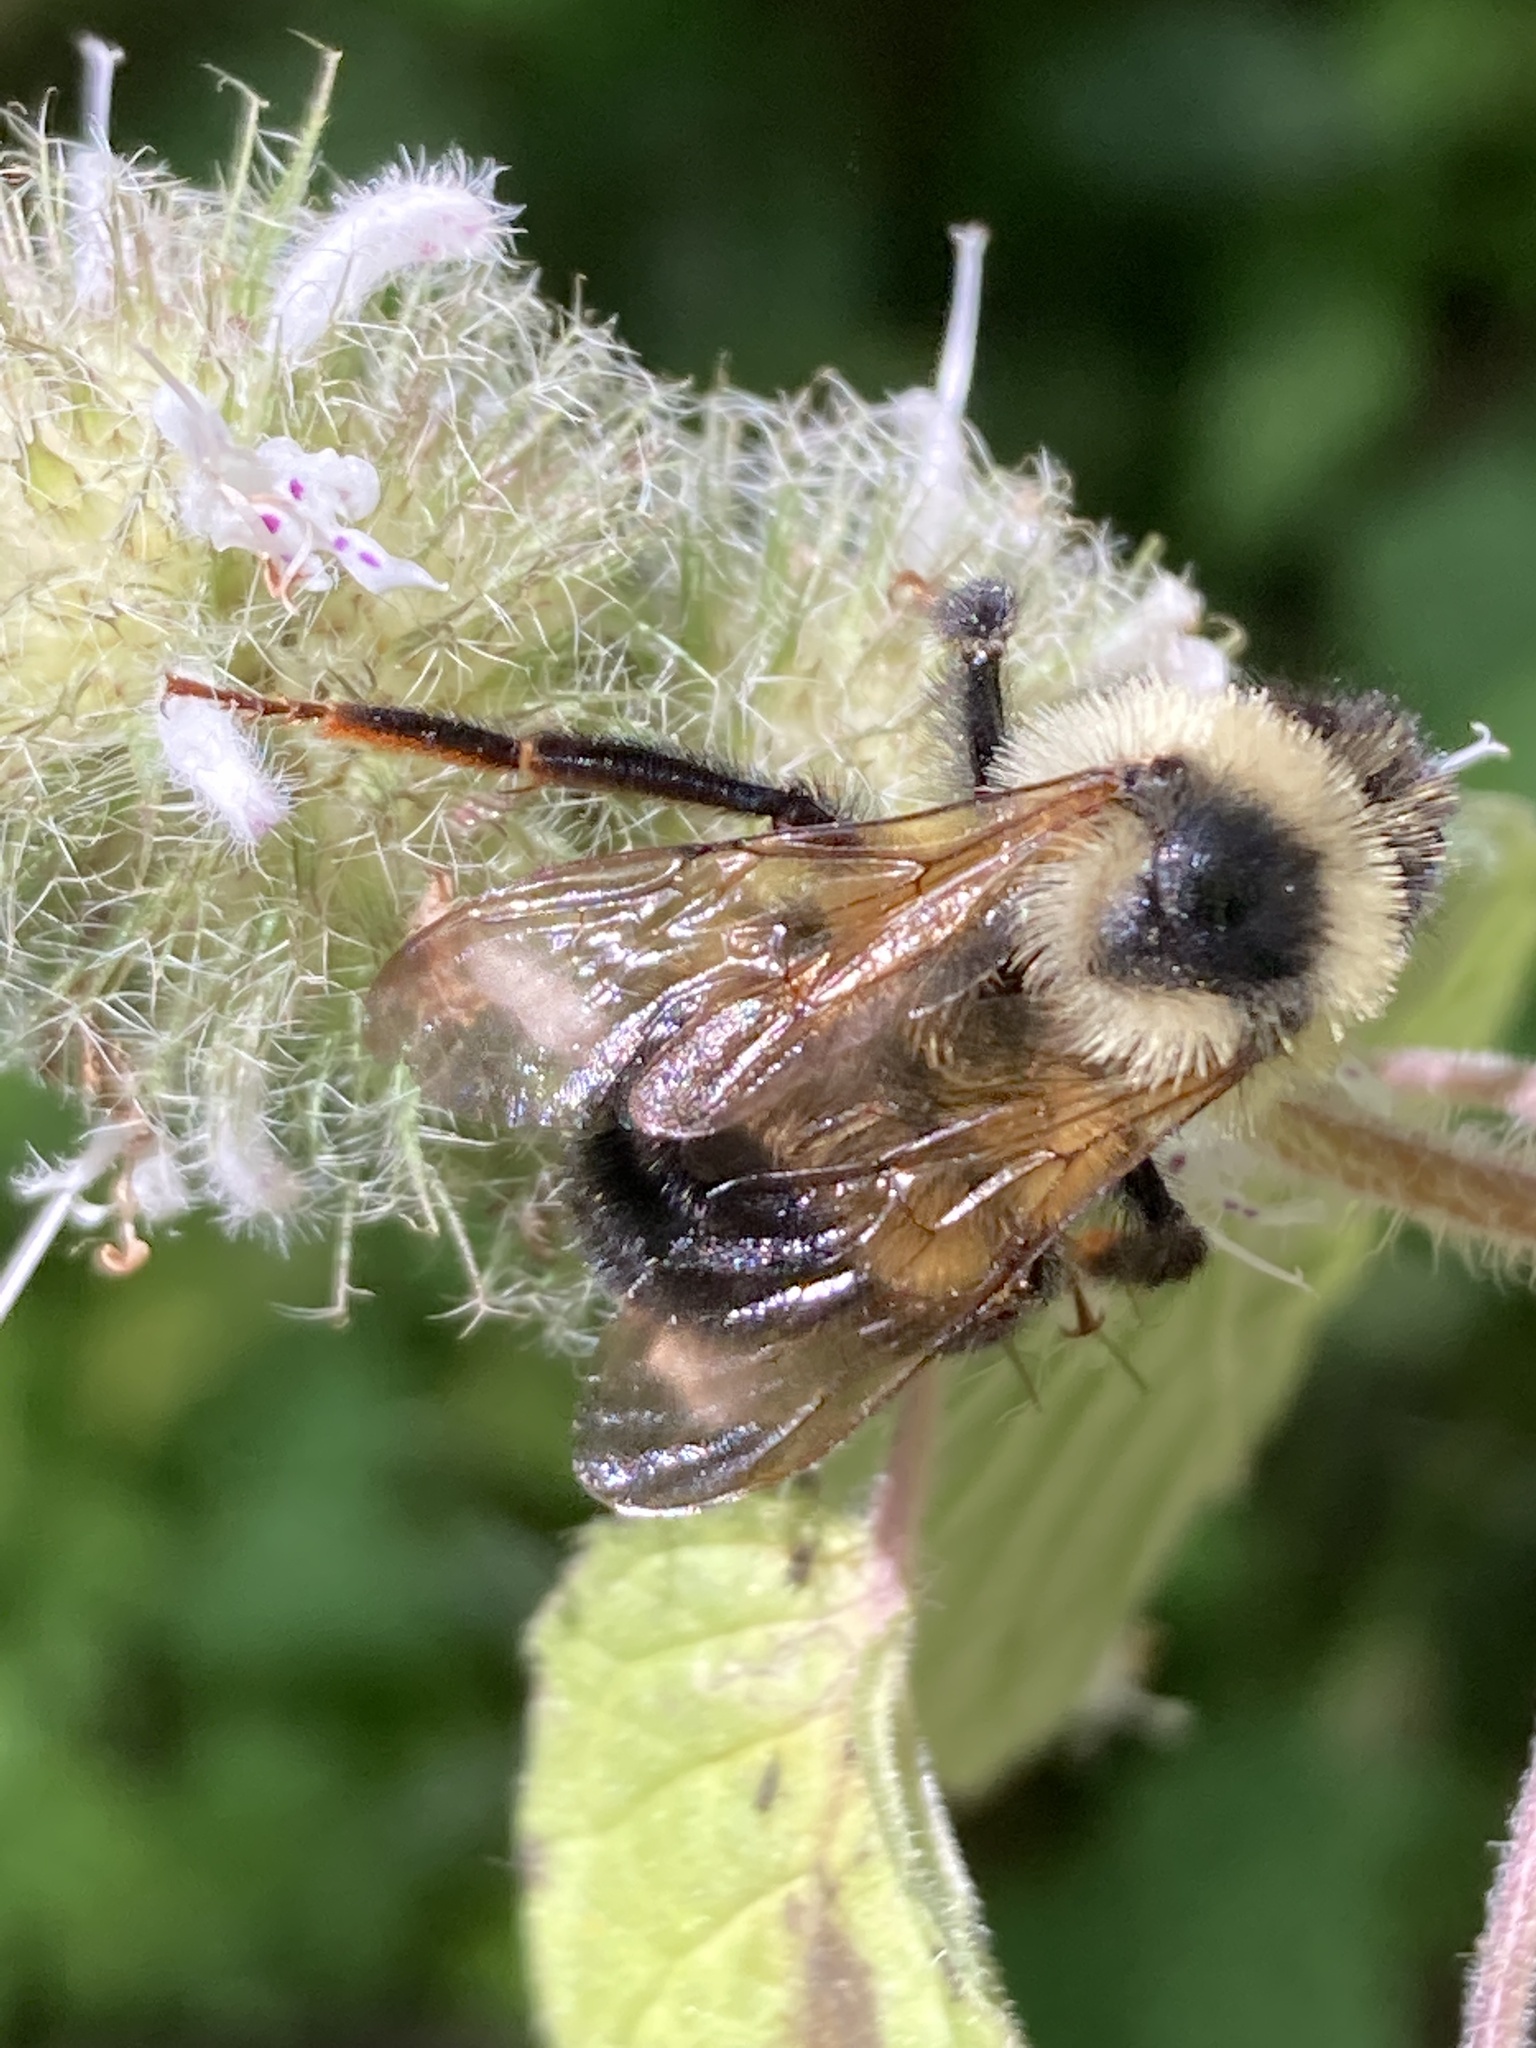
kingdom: Animalia
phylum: Arthropoda
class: Insecta
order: Hymenoptera
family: Apidae
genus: Bombus
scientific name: Bombus citrinus
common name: Lemon cuckoo bumble bee
